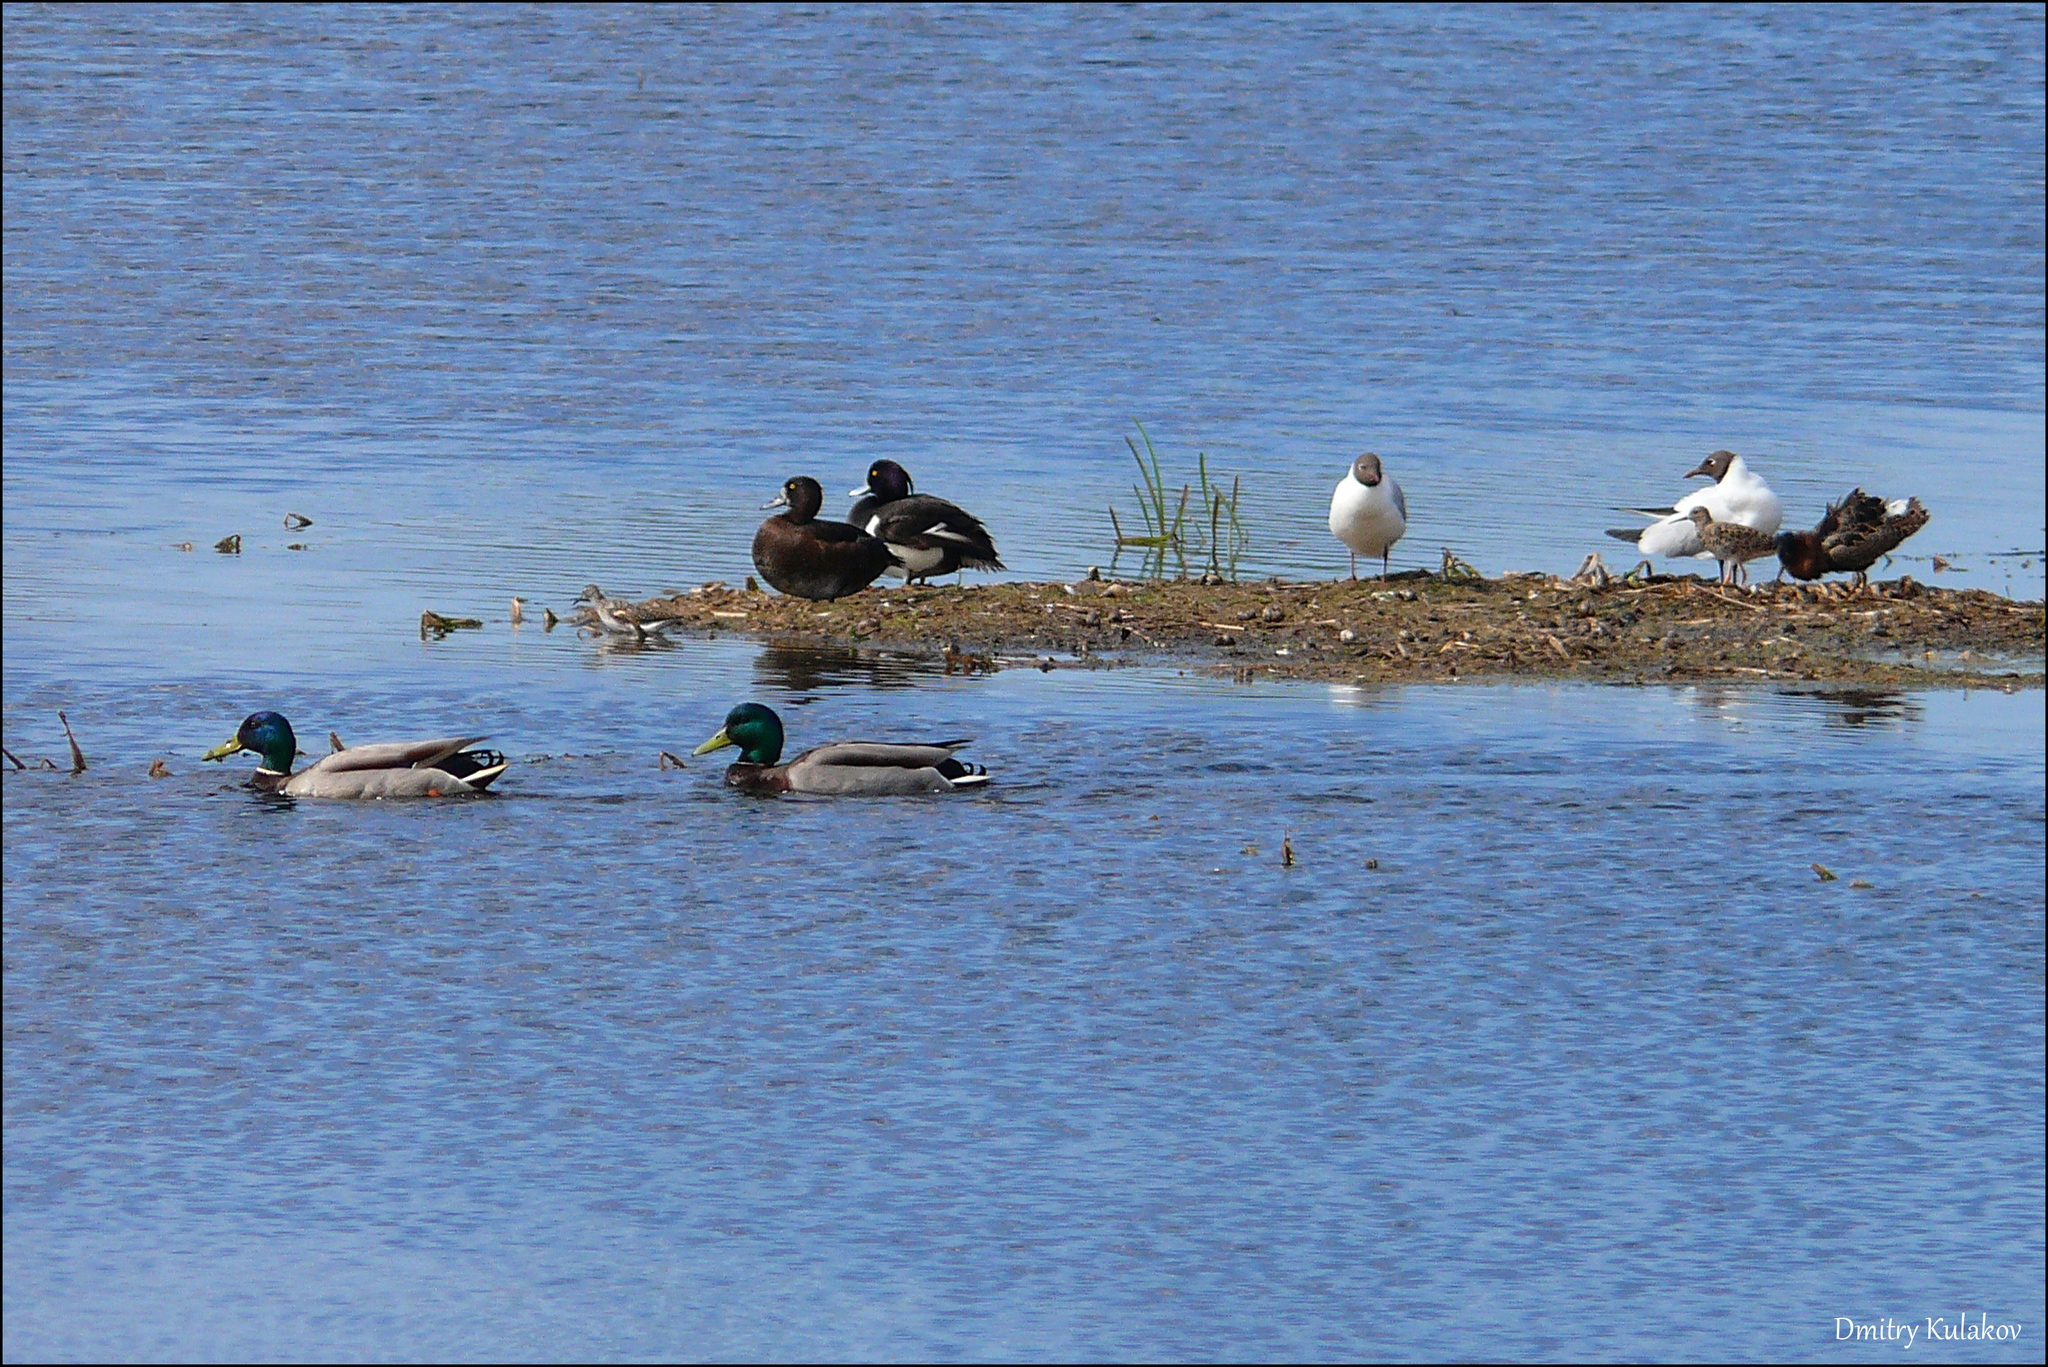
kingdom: Animalia
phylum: Chordata
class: Aves
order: Anseriformes
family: Anatidae
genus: Anas
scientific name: Anas platyrhynchos
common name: Mallard
